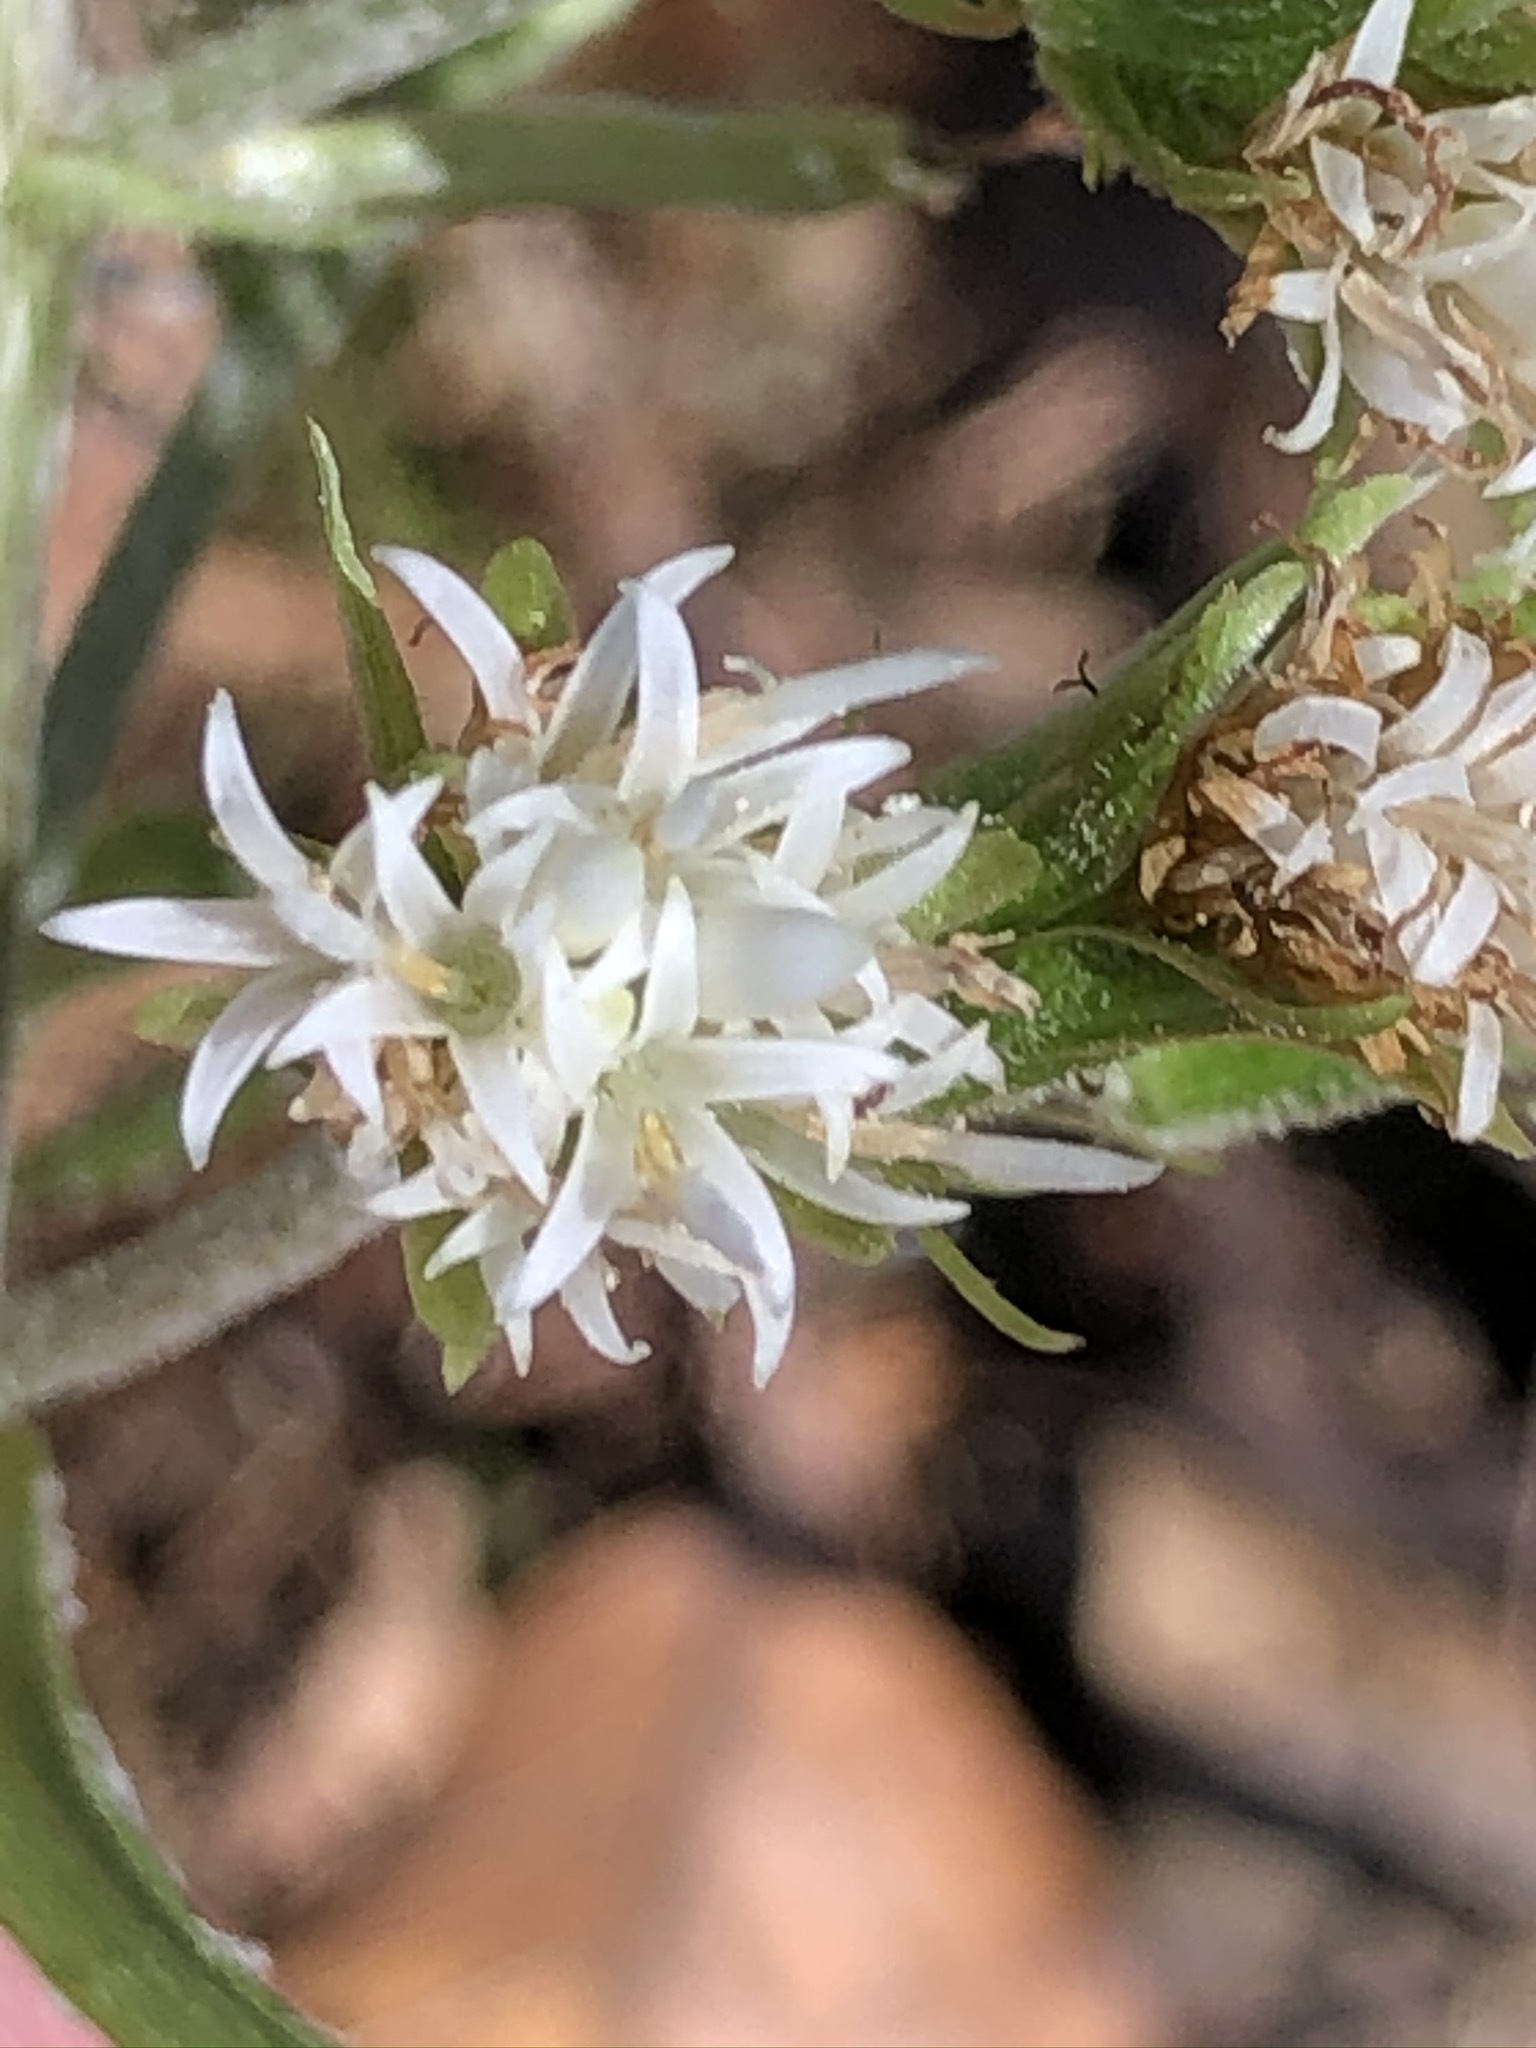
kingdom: Plantae
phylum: Tracheophyta
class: Magnoliopsida
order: Asterales
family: Asteraceae
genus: Petasites
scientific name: Petasites albus
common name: White butterbur
